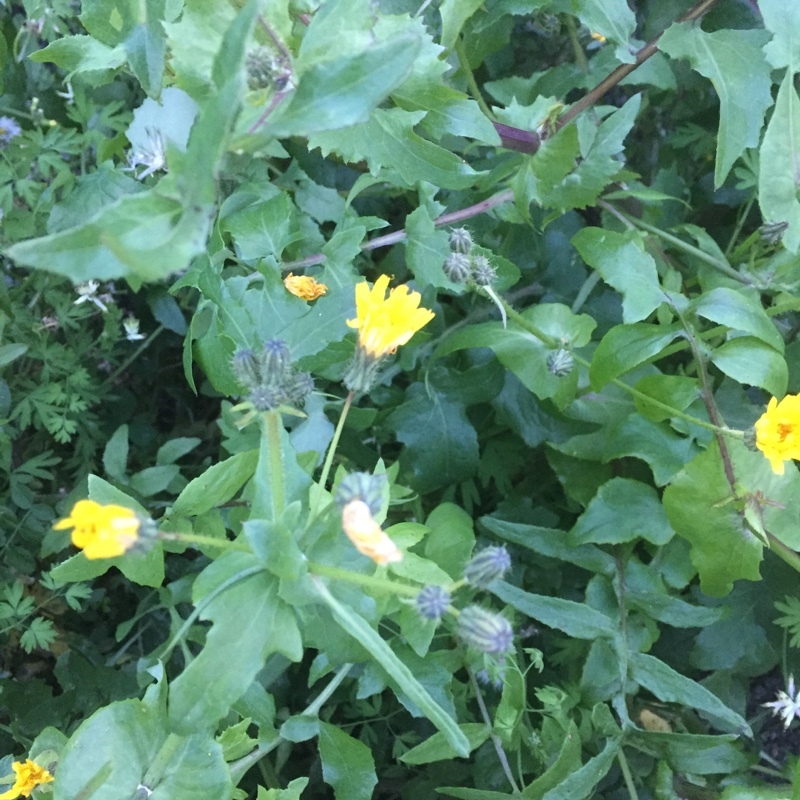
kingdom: Plantae
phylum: Tracheophyta
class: Magnoliopsida
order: Asterales
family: Asteraceae
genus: Sonchus
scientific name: Sonchus oleraceus
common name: Common sowthistle
